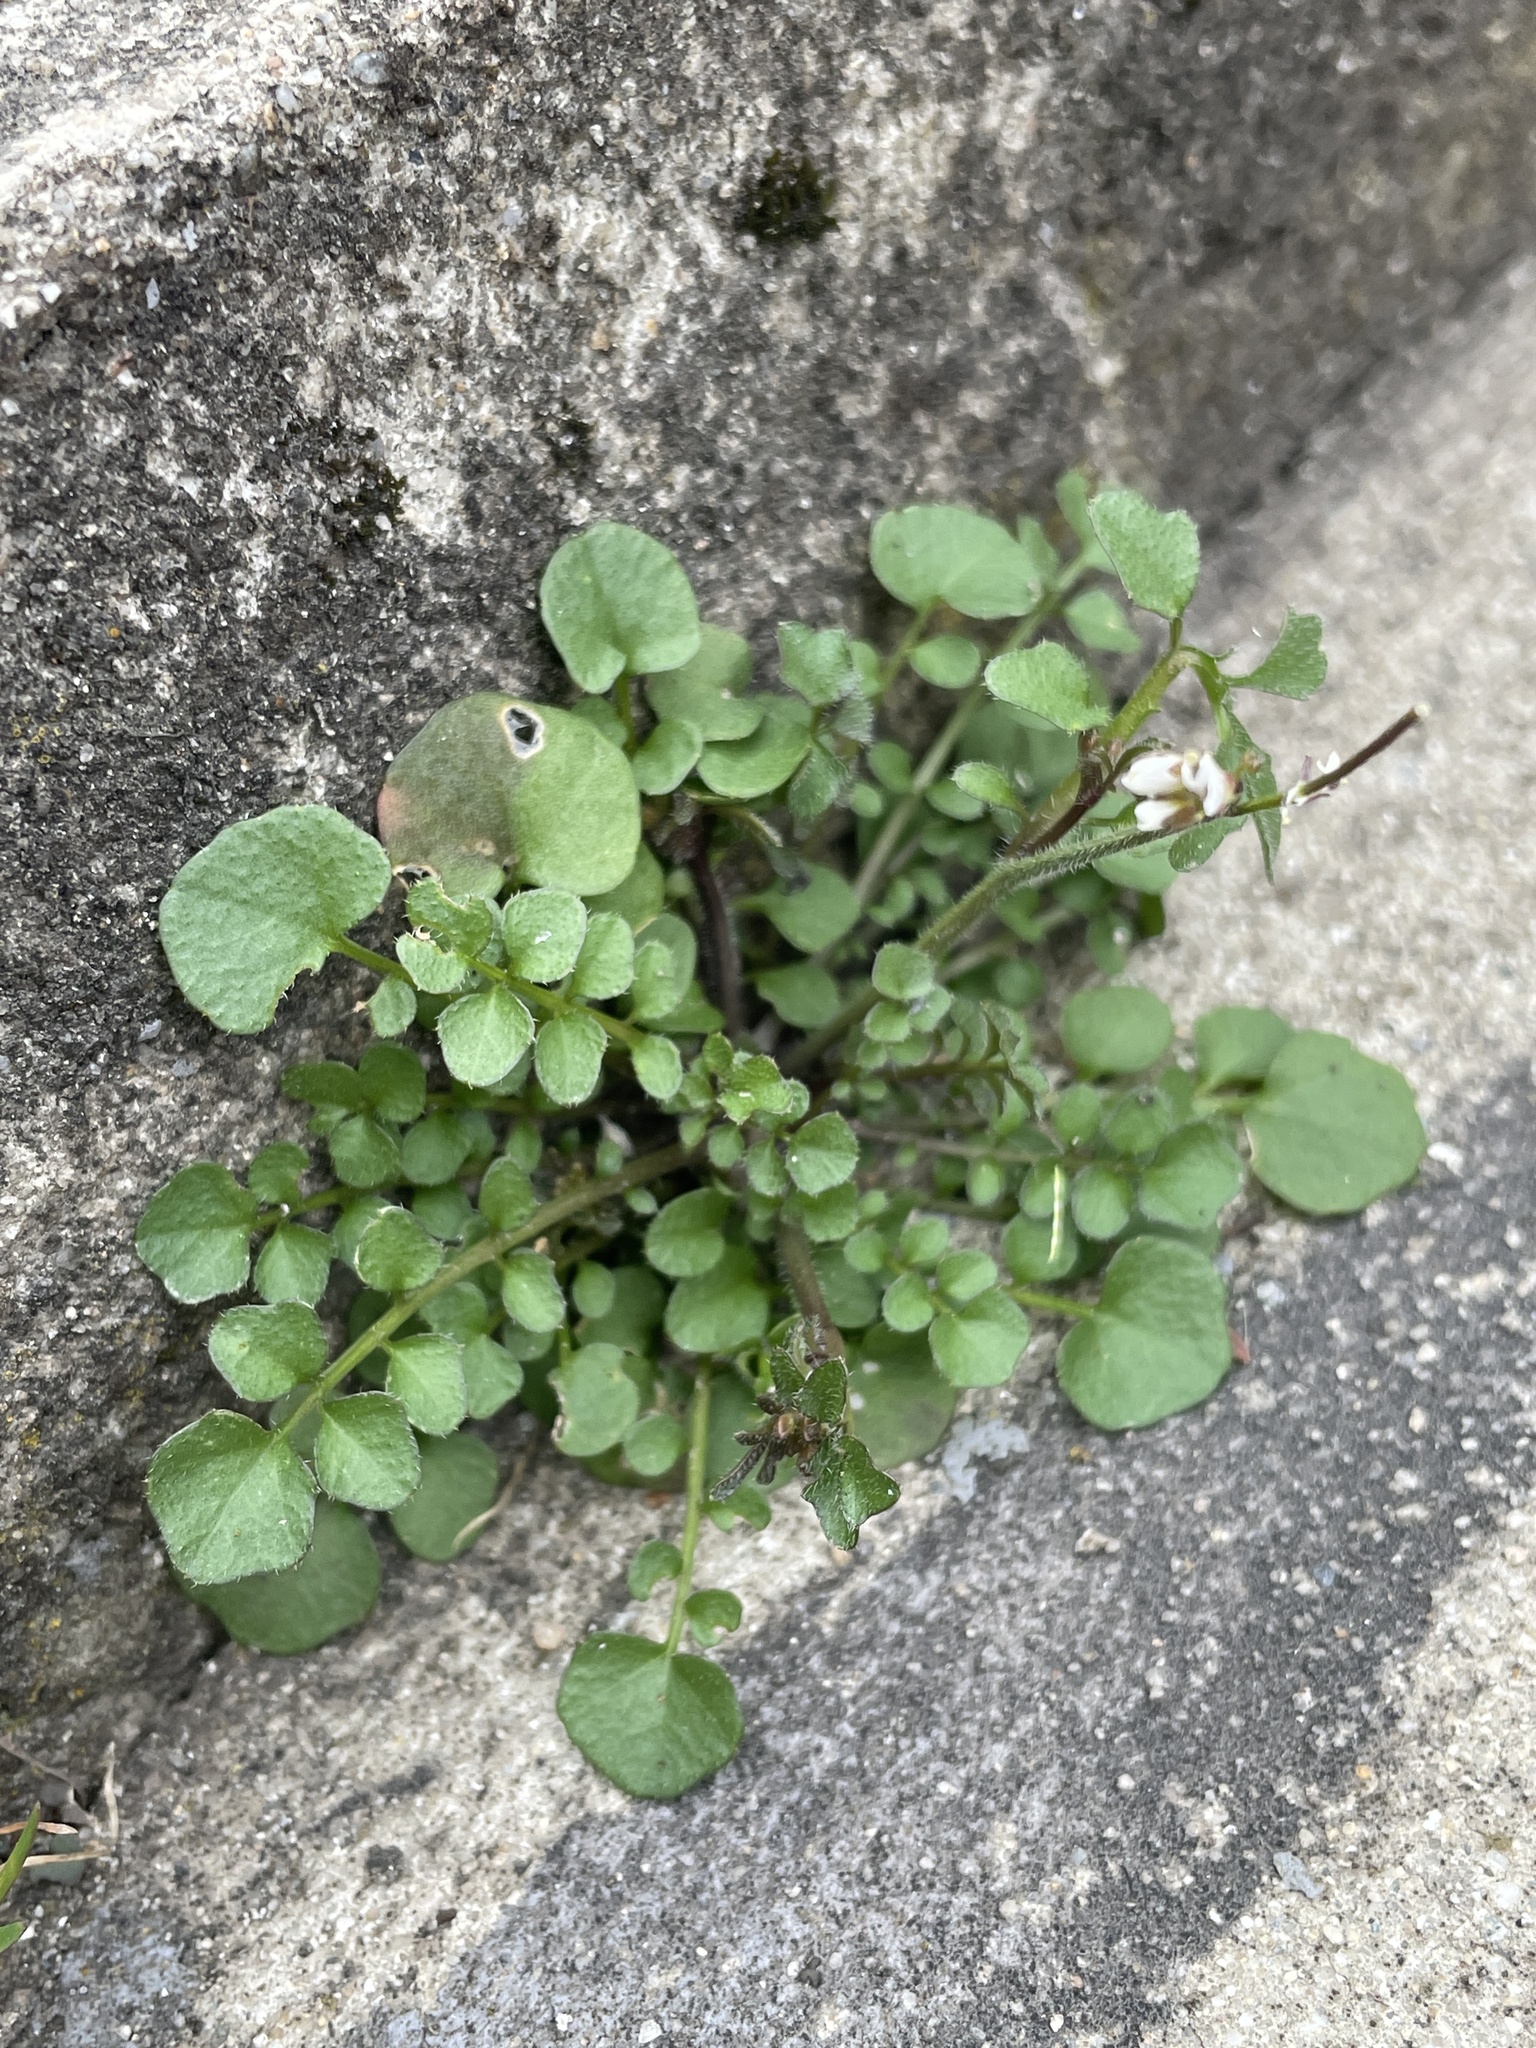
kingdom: Plantae
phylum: Tracheophyta
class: Magnoliopsida
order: Brassicales
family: Brassicaceae
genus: Cardamine
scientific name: Cardamine hirsuta
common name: Hairy bittercress
